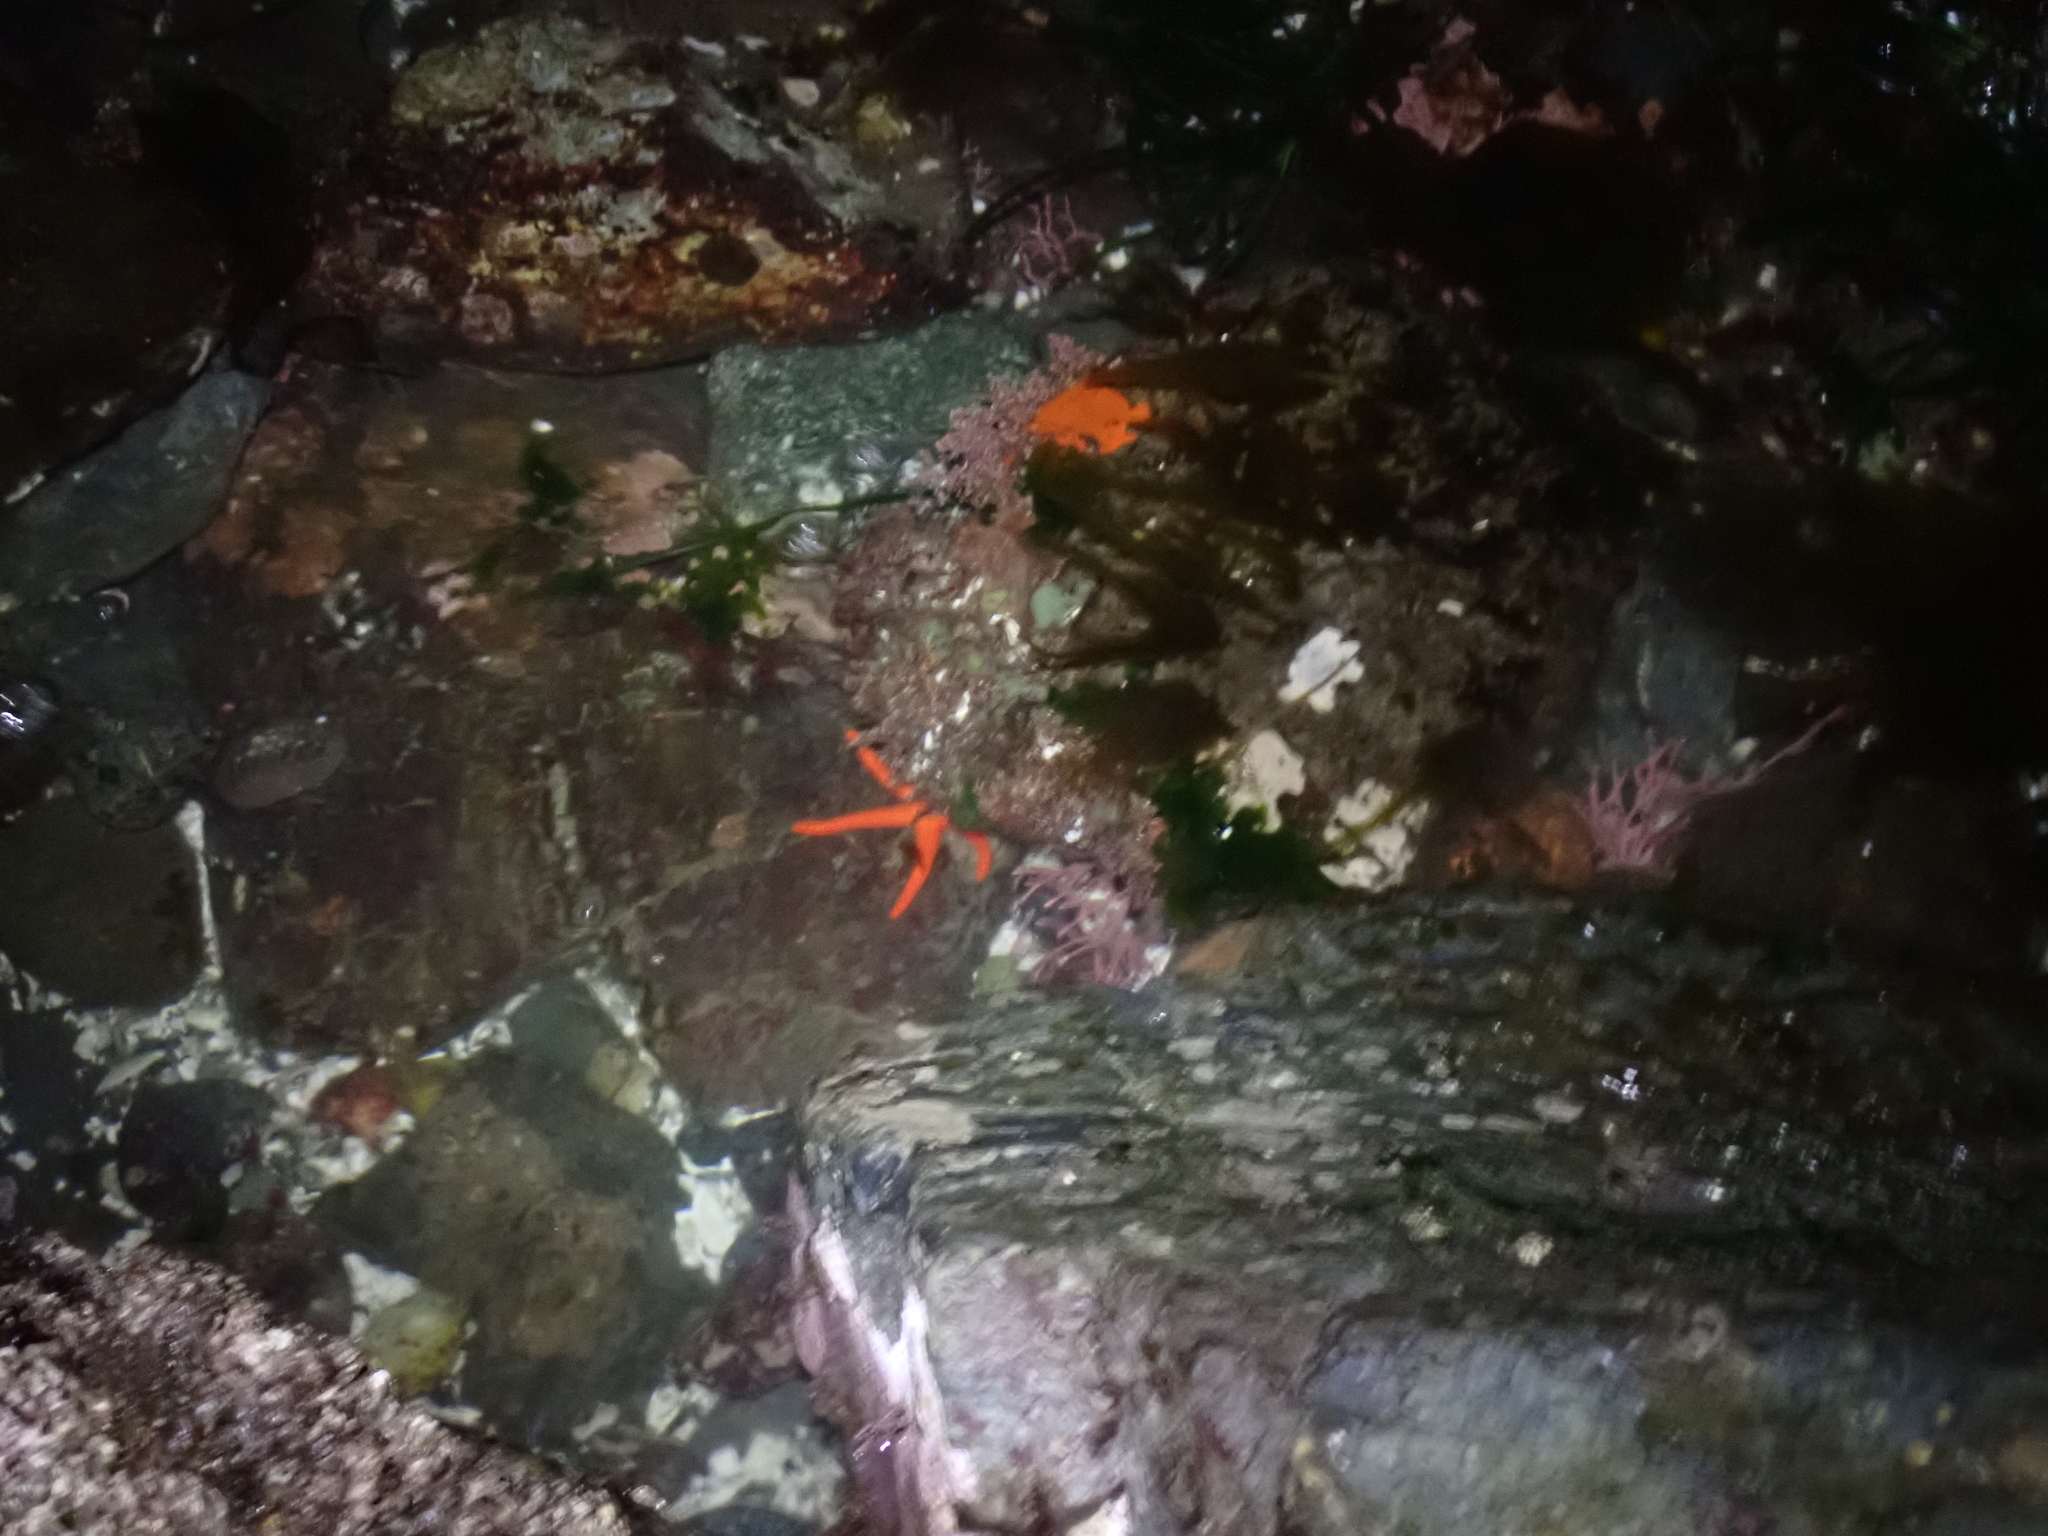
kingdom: Animalia
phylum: Echinodermata
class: Asteroidea
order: Spinulosida
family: Echinasteridae
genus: Henricia
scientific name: Henricia leviuscula
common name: Pacific blood star
